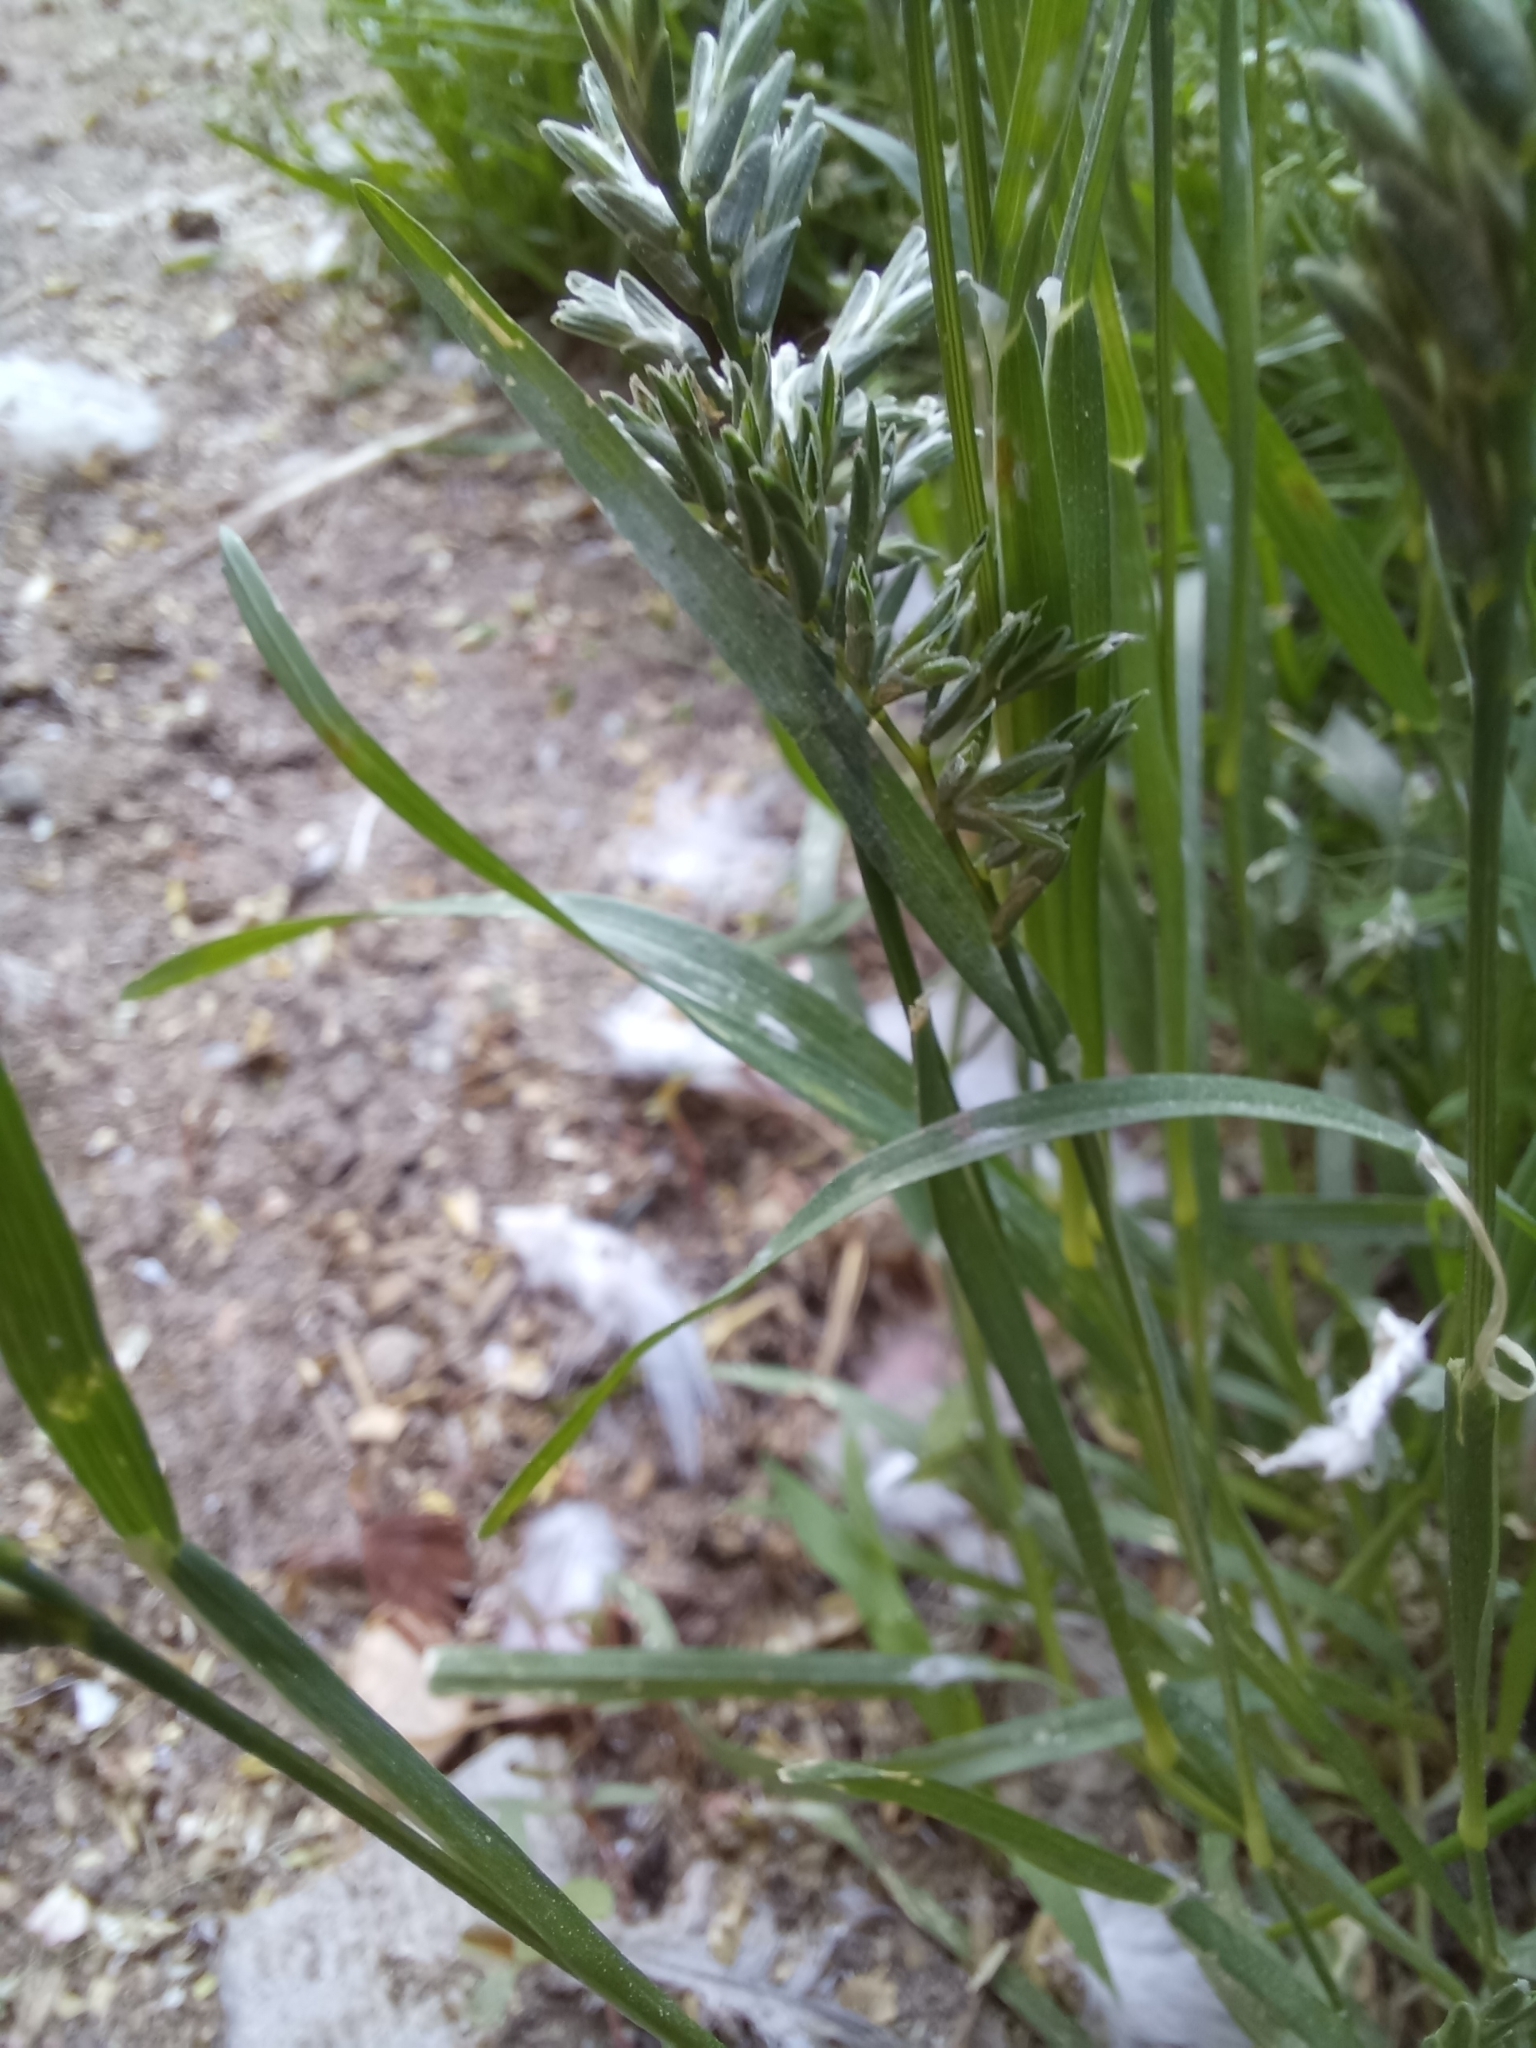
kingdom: Plantae
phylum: Tracheophyta
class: Liliopsida
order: Poales
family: Poaceae
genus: Sclerochloa
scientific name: Sclerochloa dura
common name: Common hardgrass
